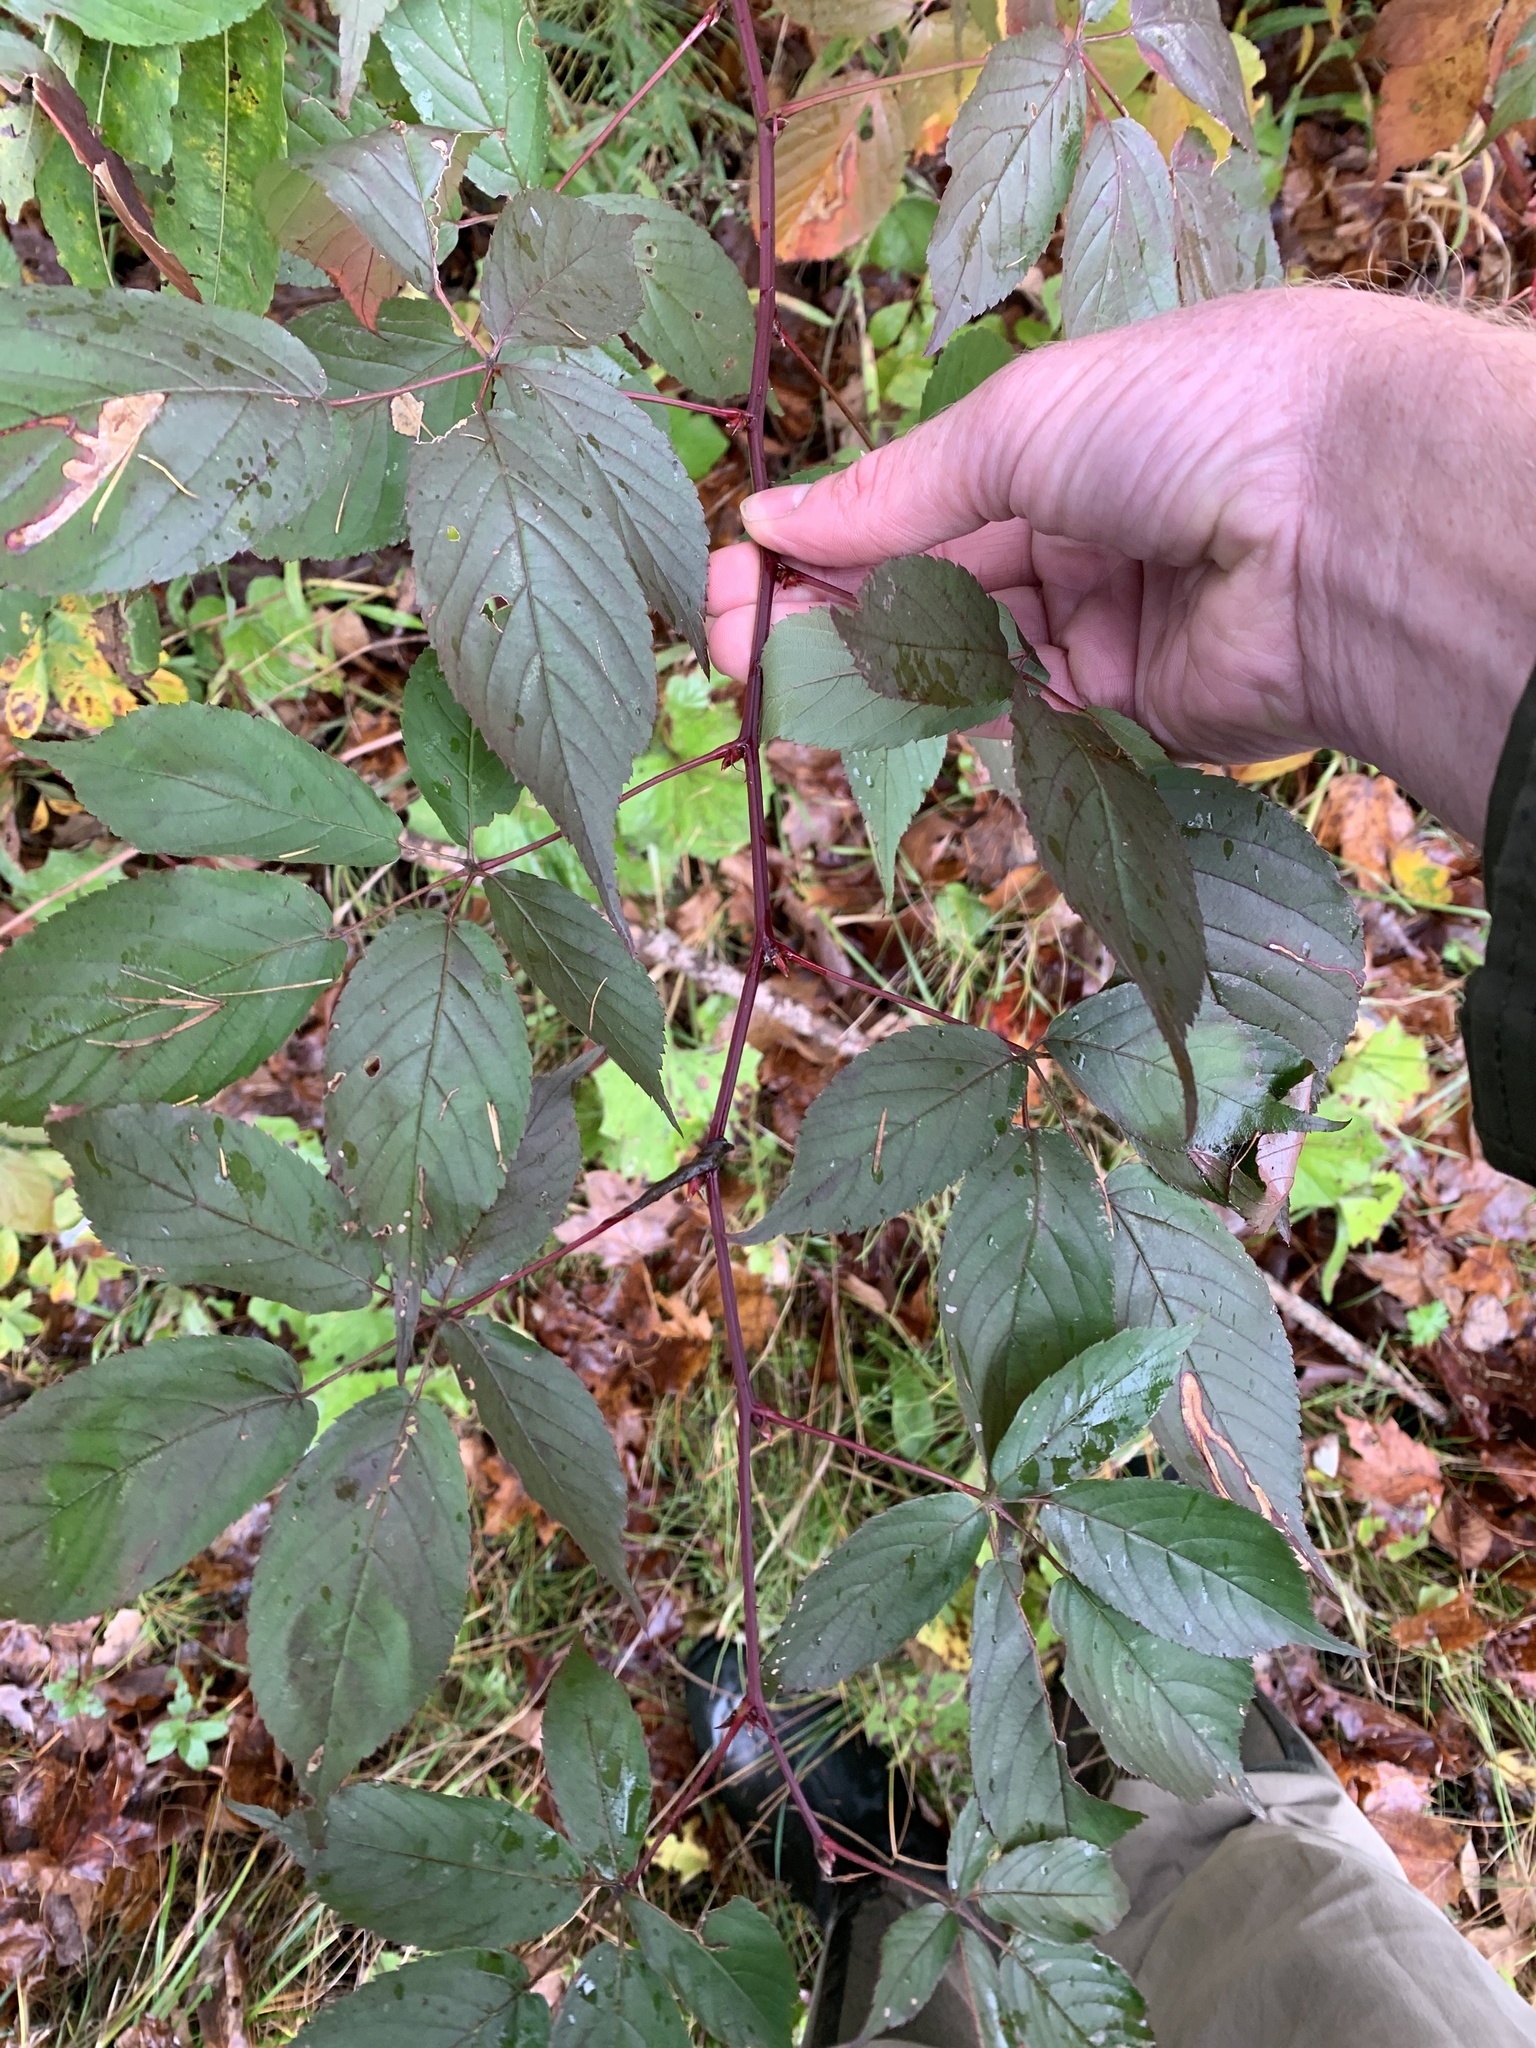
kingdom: Plantae
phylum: Tracheophyta
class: Magnoliopsida
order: Rosales
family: Rosaceae
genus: Rubus
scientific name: Rubus canadensis
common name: Smooth blackberry
